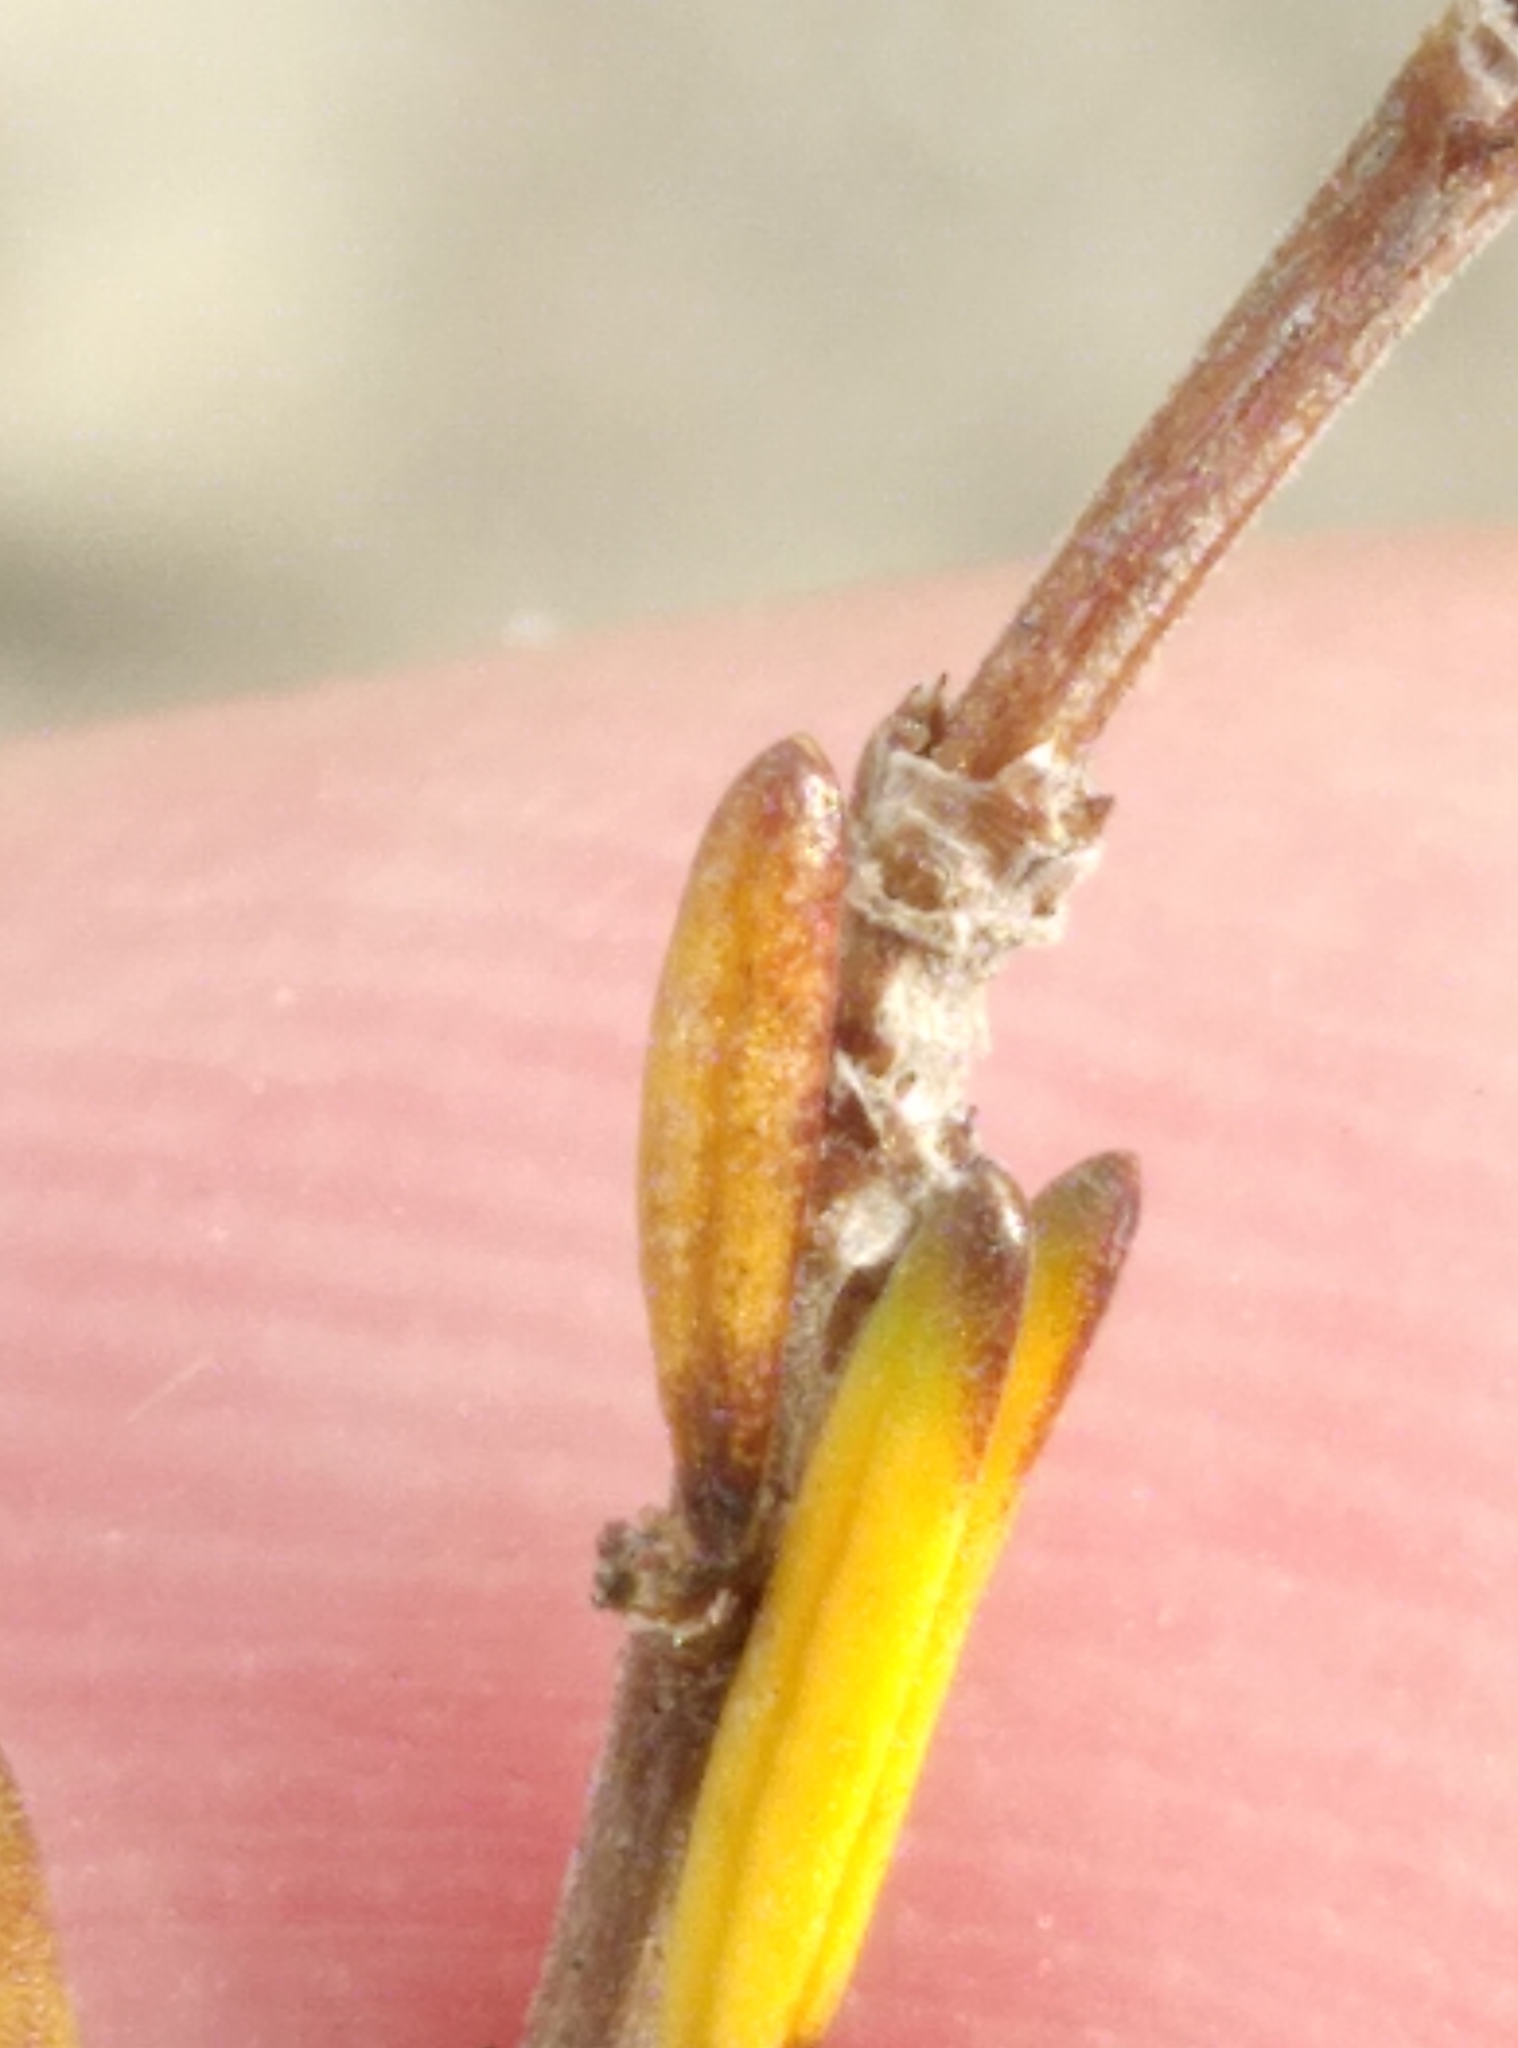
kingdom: Plantae
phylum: Tracheophyta
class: Magnoliopsida
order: Gentianales
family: Rubiaceae
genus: Coprosma
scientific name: Coprosma acerosa
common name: Sand coprosma
